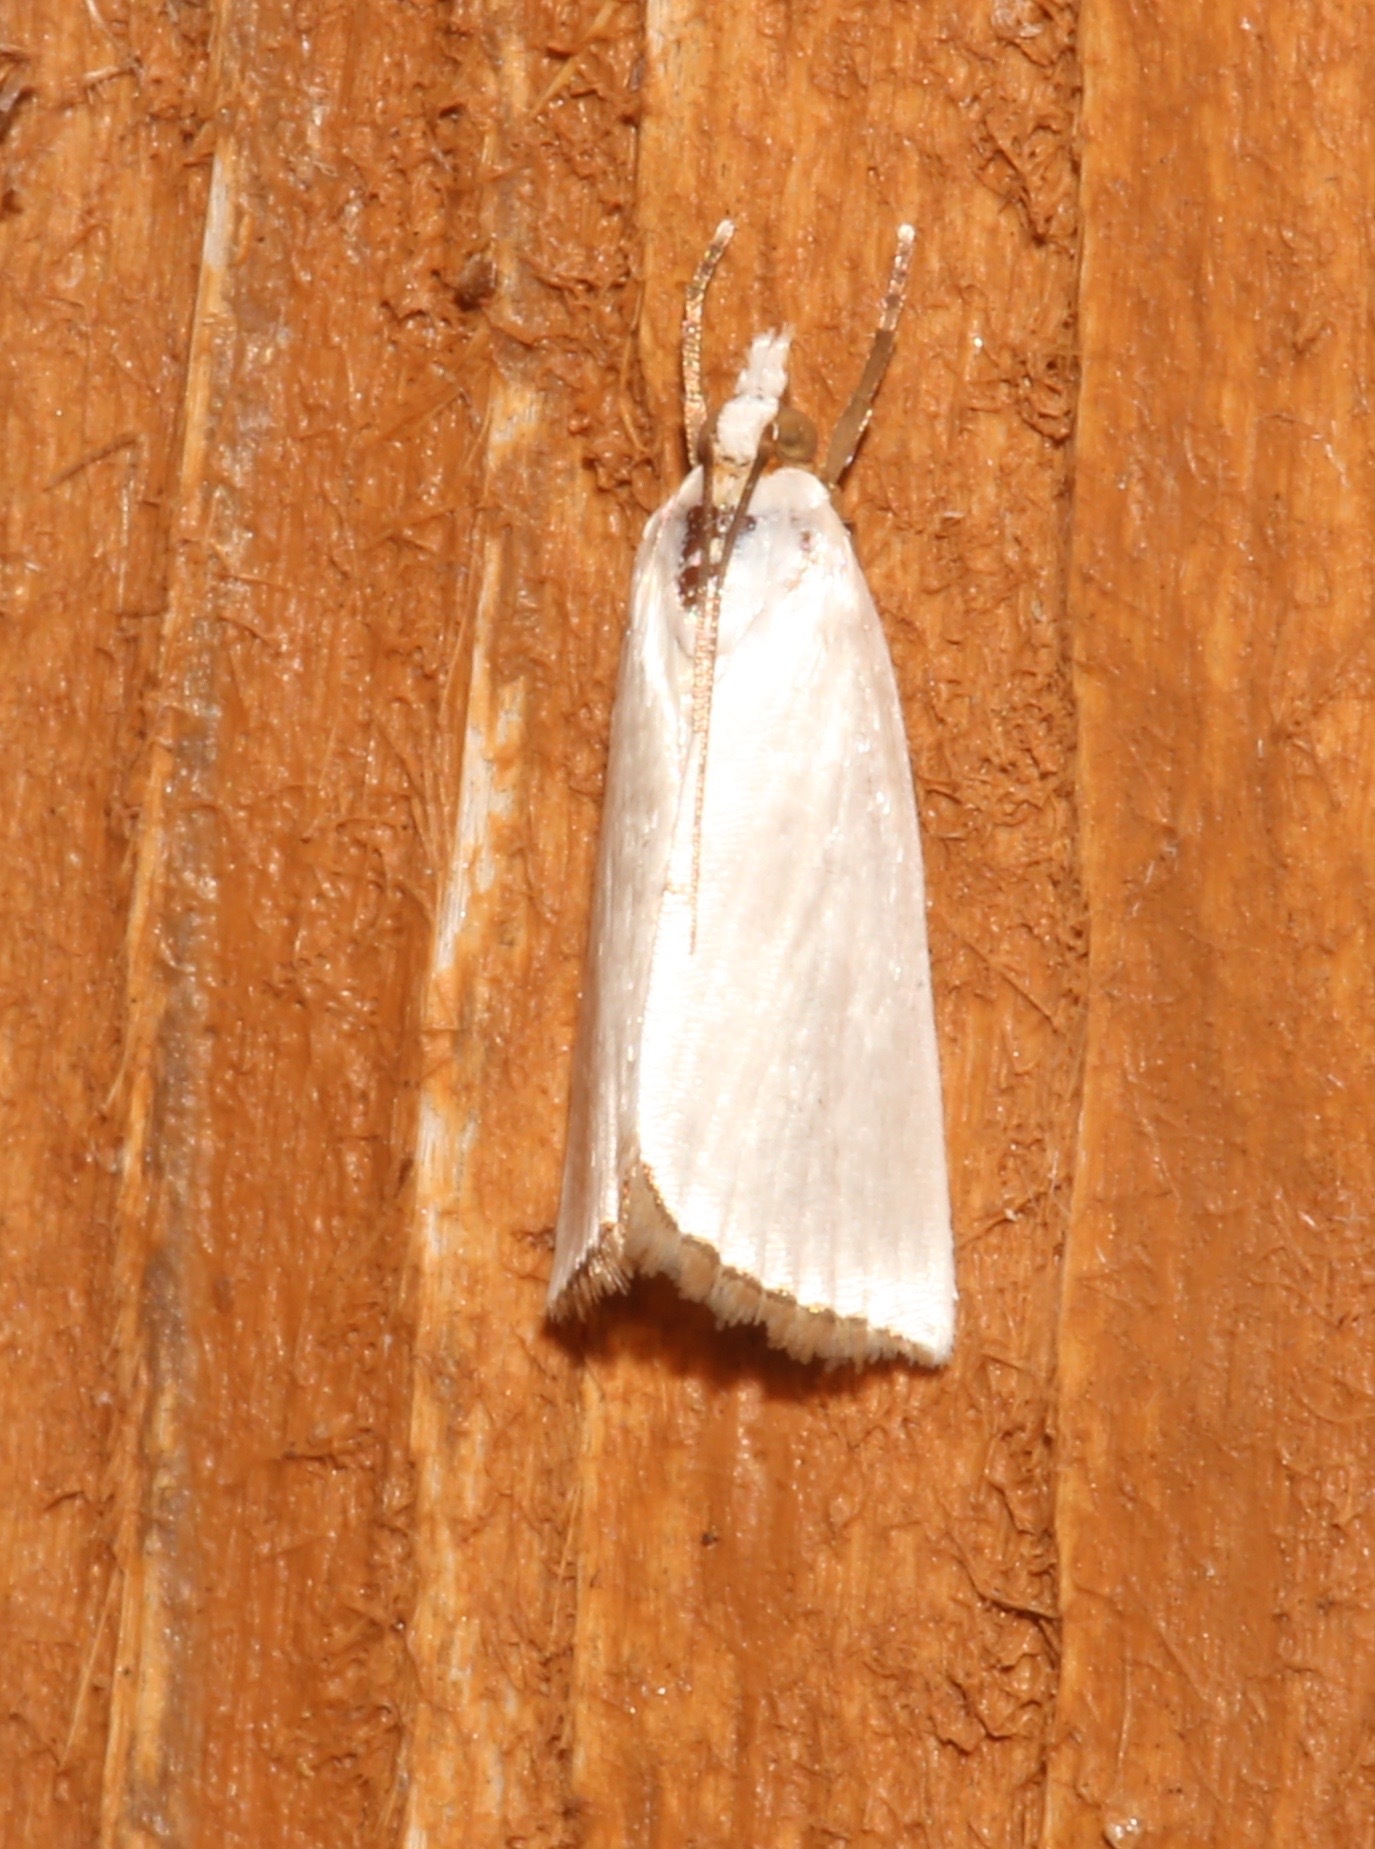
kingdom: Animalia
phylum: Arthropoda
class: Insecta
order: Lepidoptera
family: Crambidae
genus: Argyria
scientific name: Argyria nivalis
